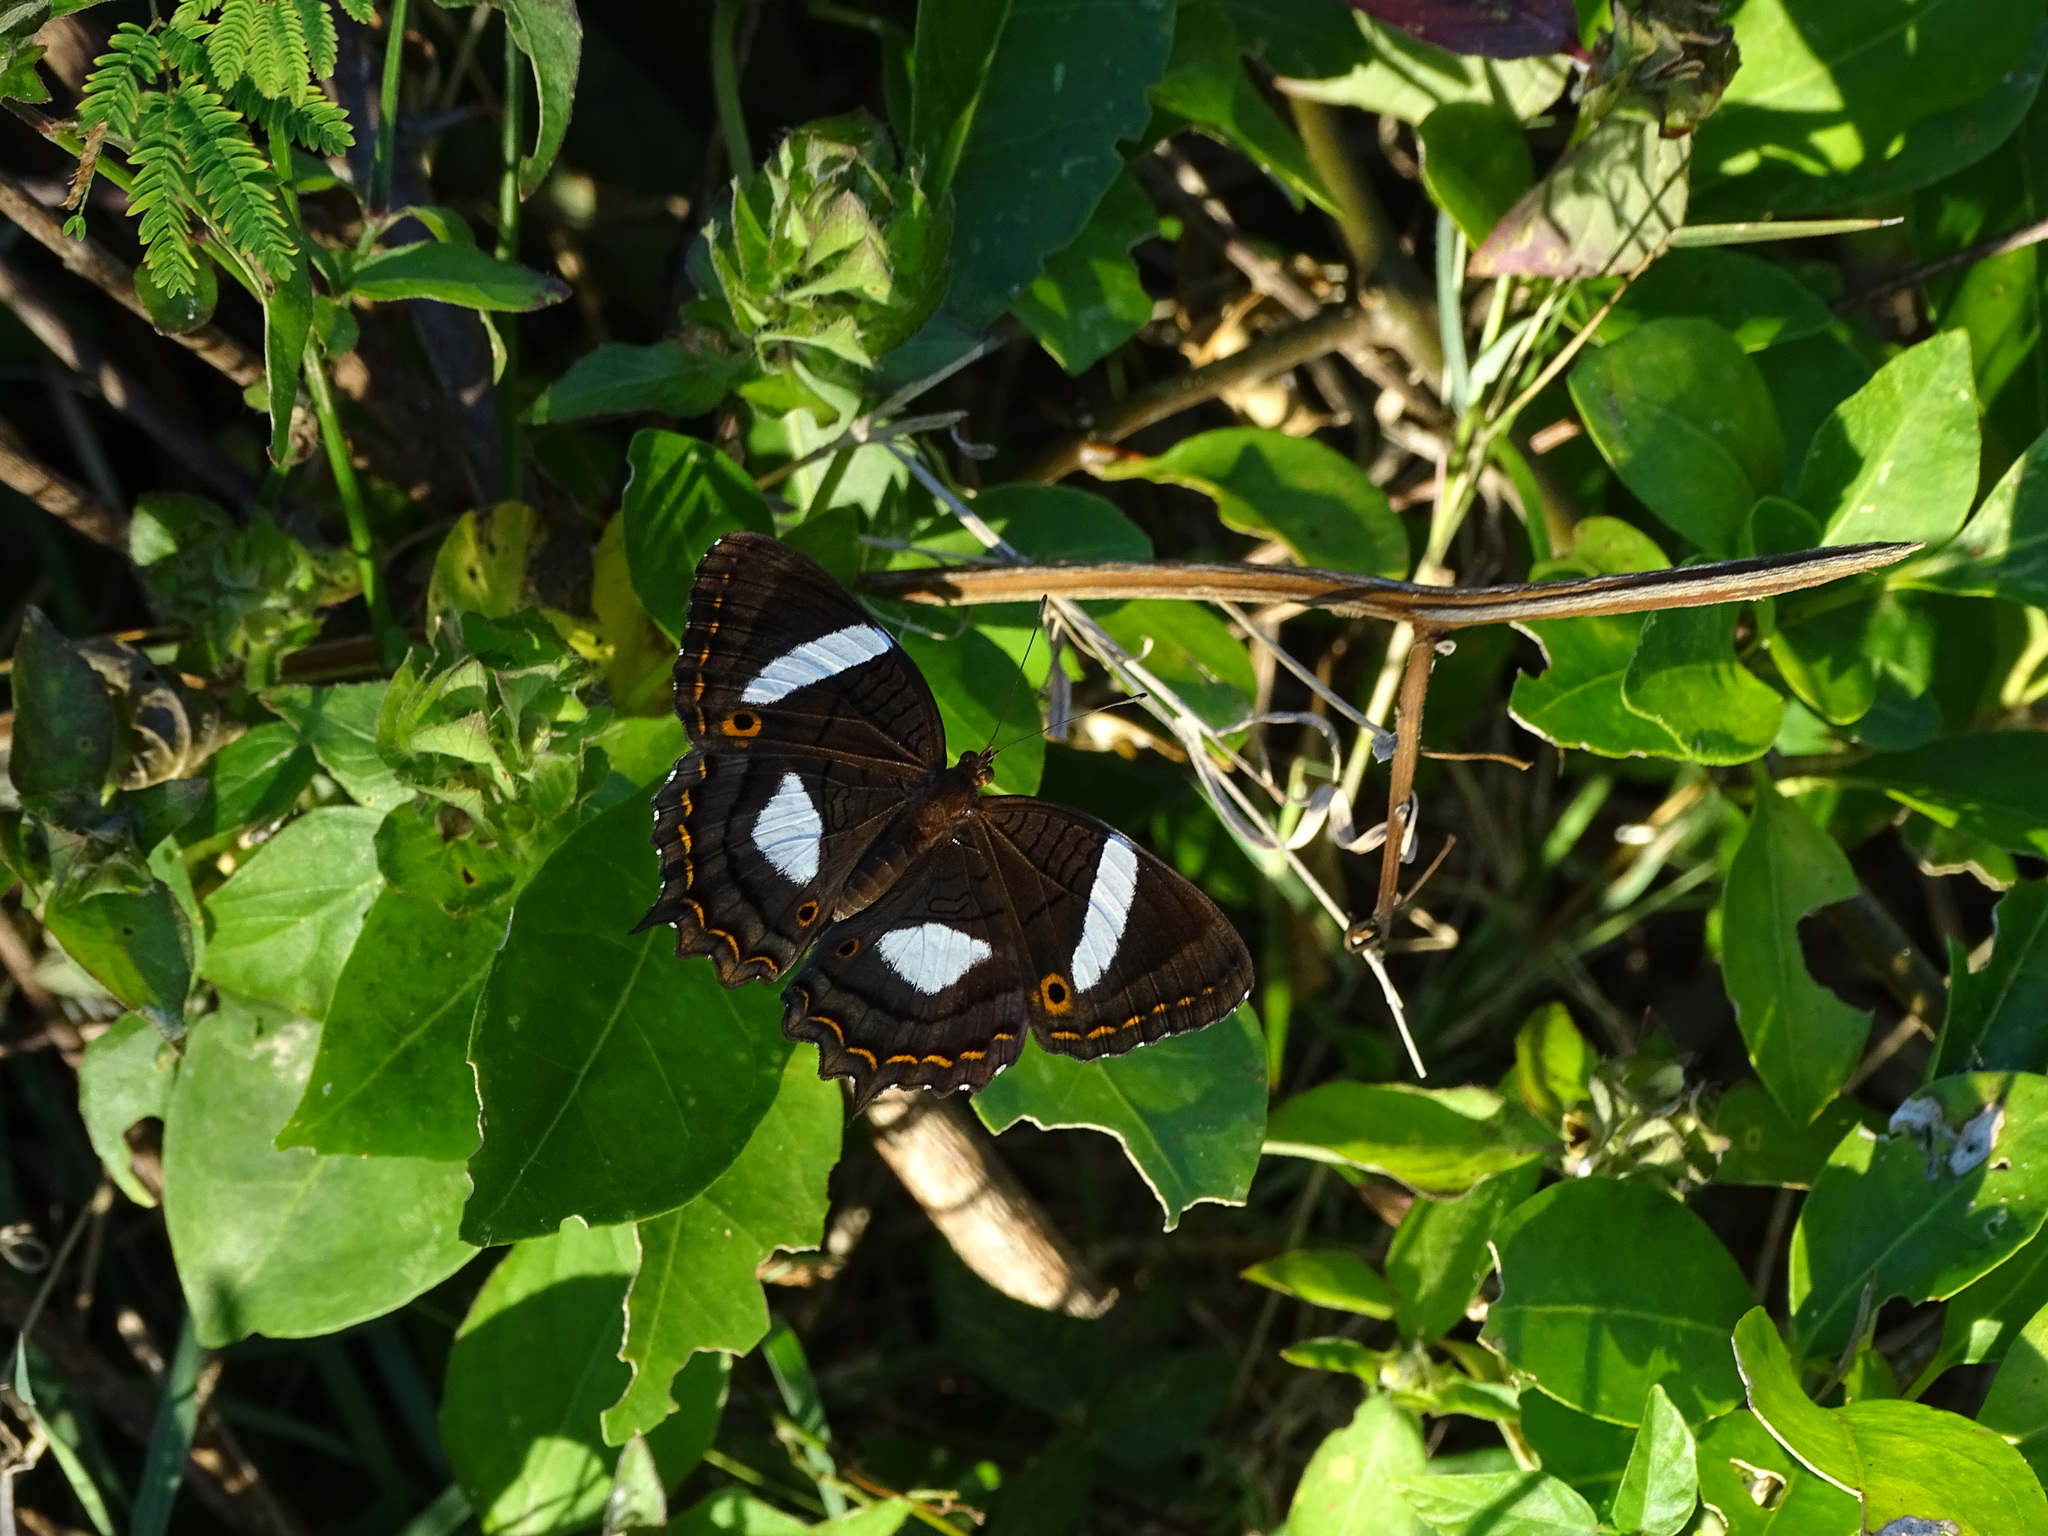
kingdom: Animalia
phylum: Arthropoda
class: Insecta
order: Lepidoptera
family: Nymphalidae
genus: Anartia
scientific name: Anartia lytraea
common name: Nymphalid moth
